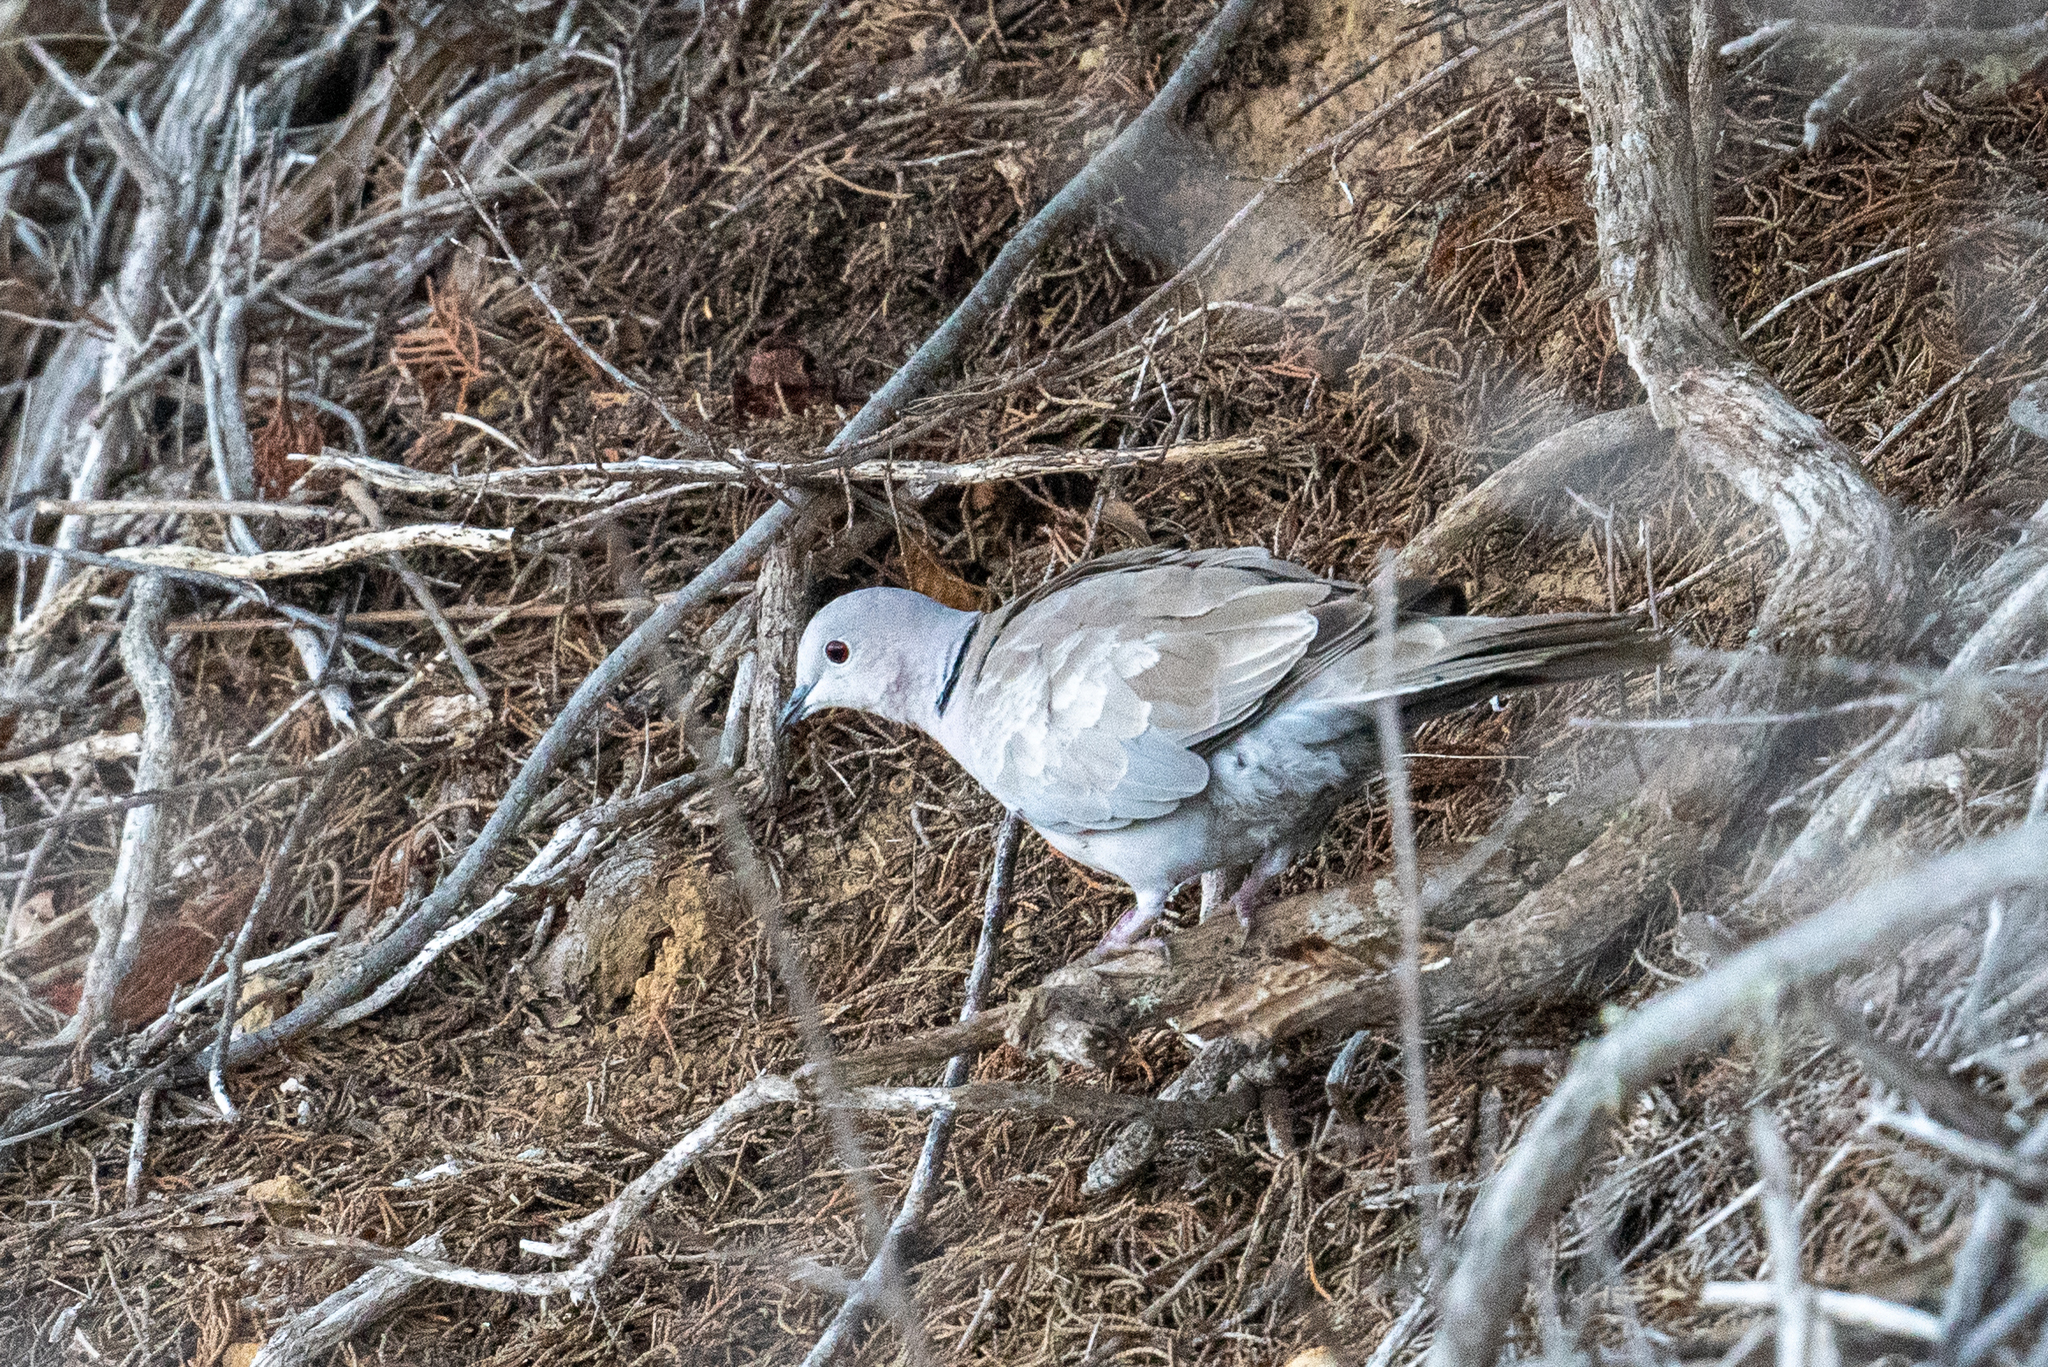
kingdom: Animalia
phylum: Chordata
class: Aves
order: Columbiformes
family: Columbidae
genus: Streptopelia
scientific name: Streptopelia decaocto
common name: Eurasian collared dove
